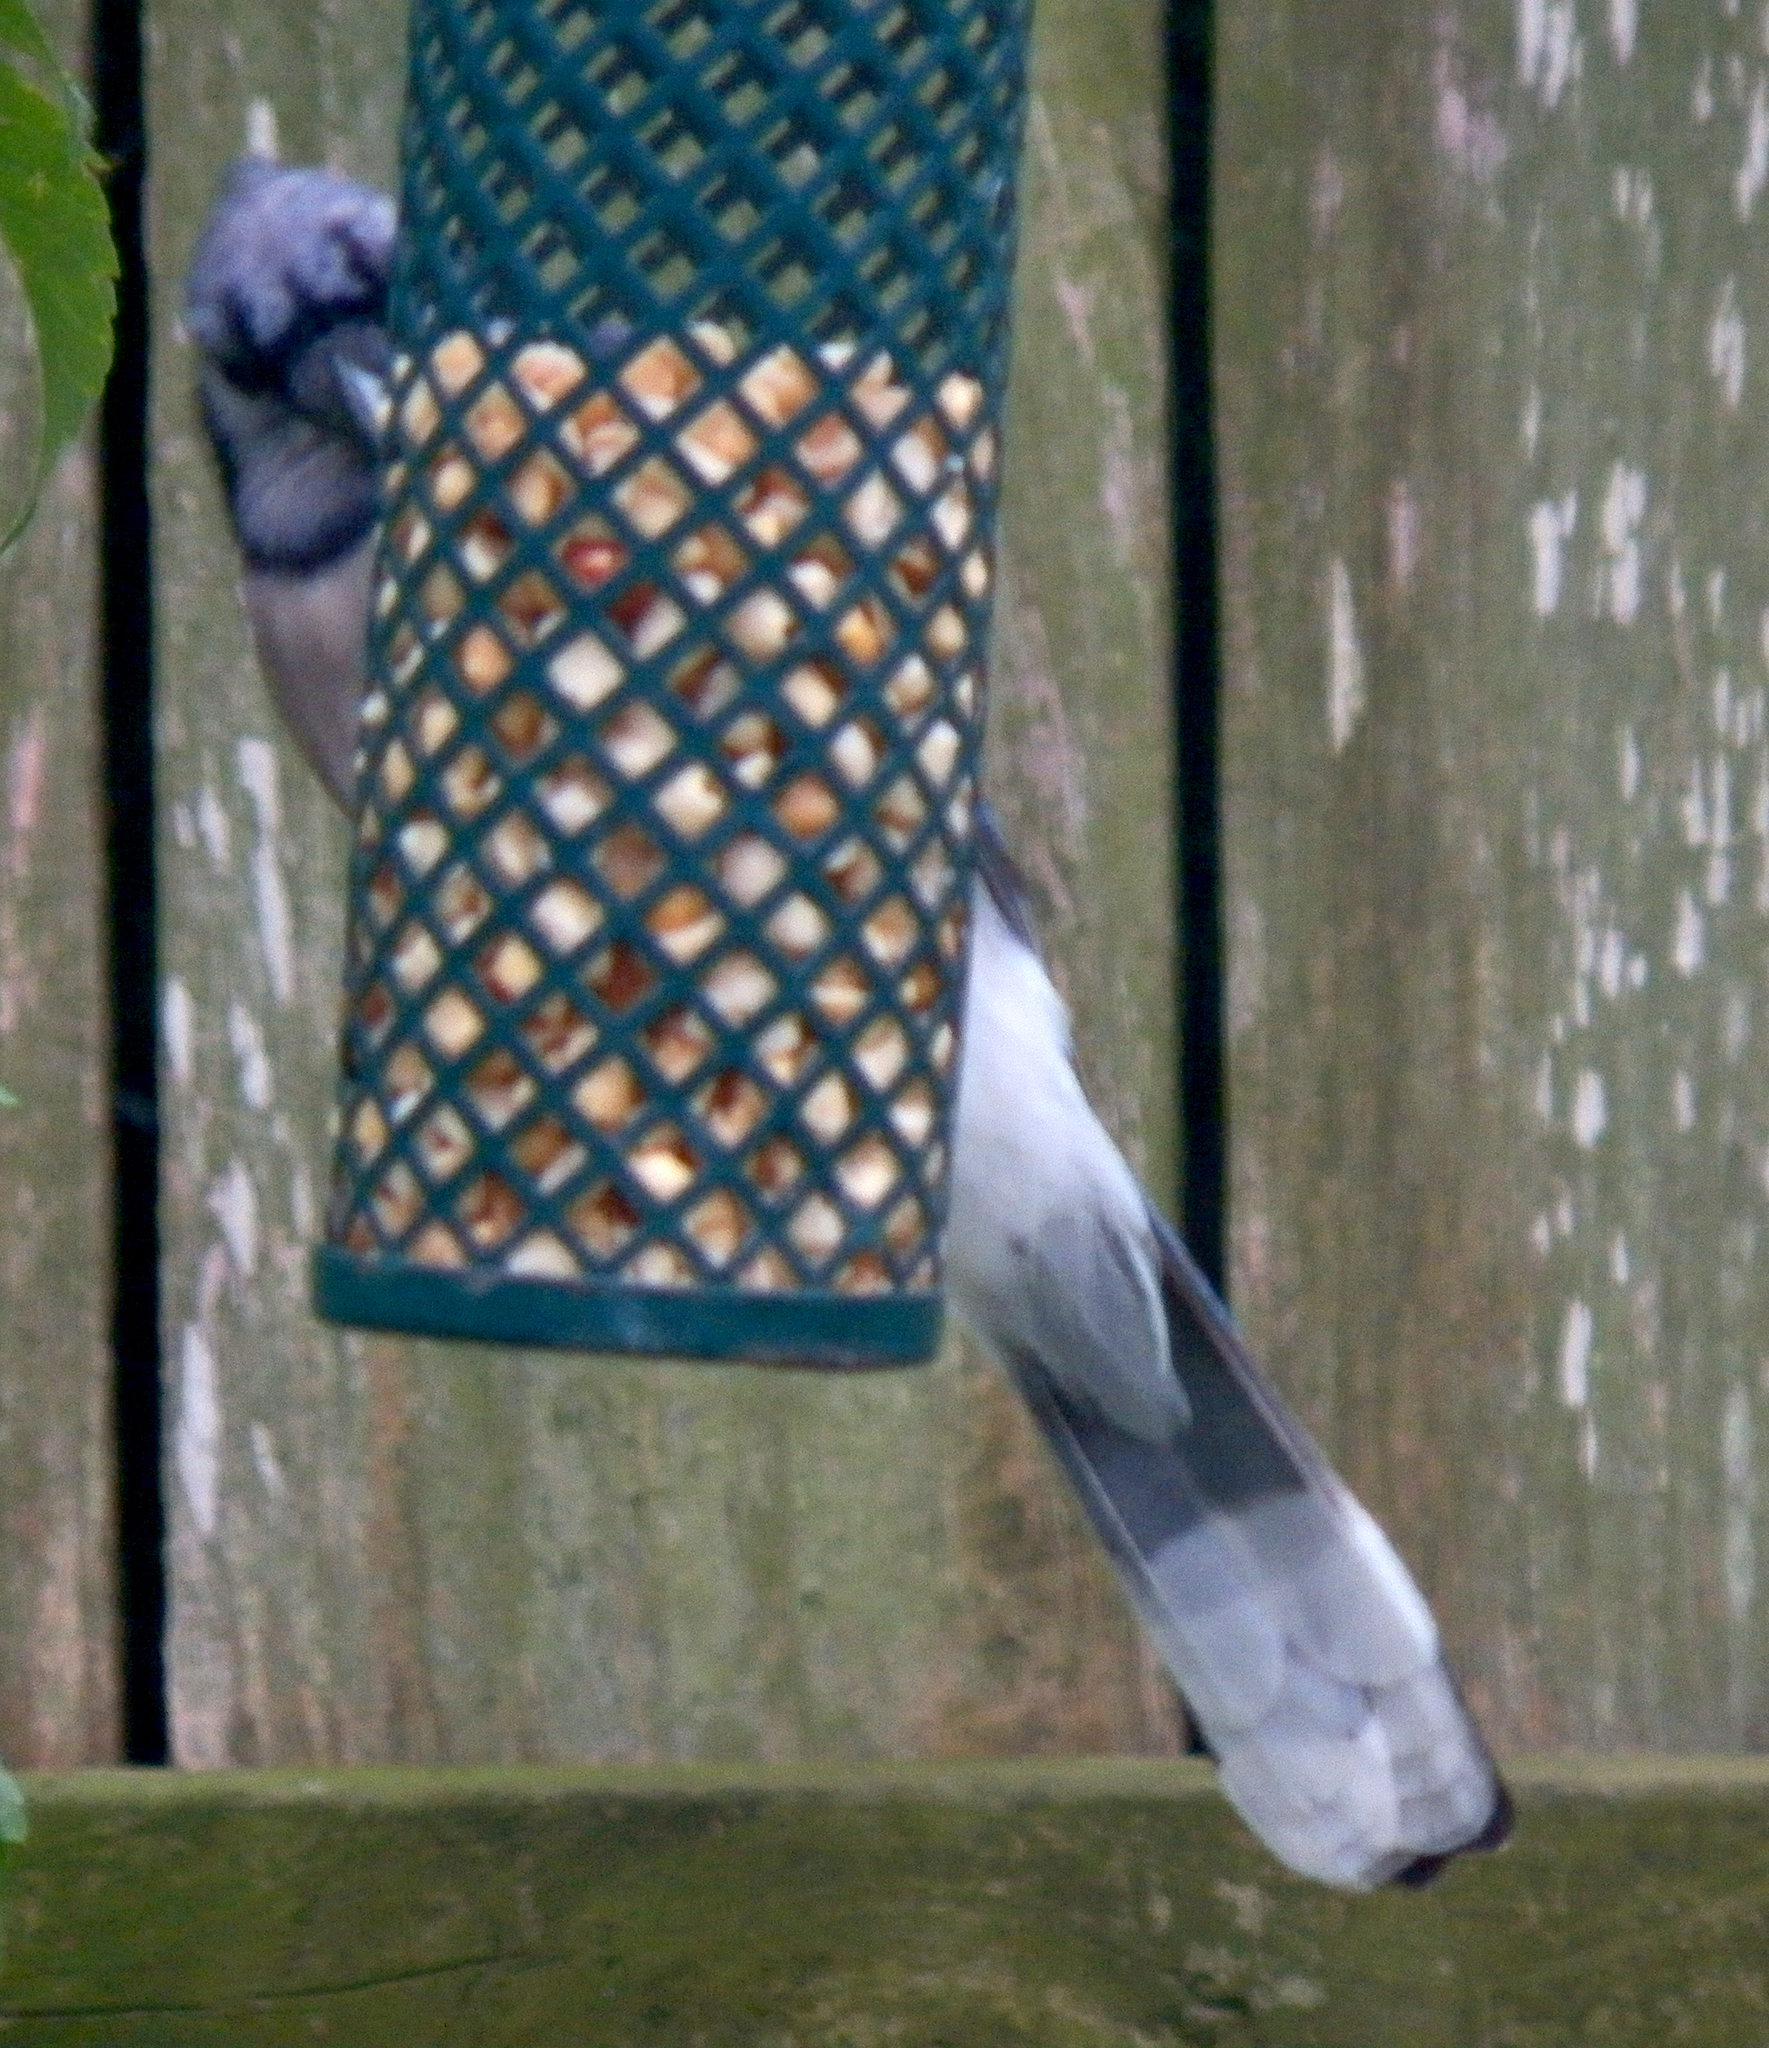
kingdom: Animalia
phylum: Chordata
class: Aves
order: Passeriformes
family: Corvidae
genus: Cyanocitta
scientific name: Cyanocitta cristata
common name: Blue jay
